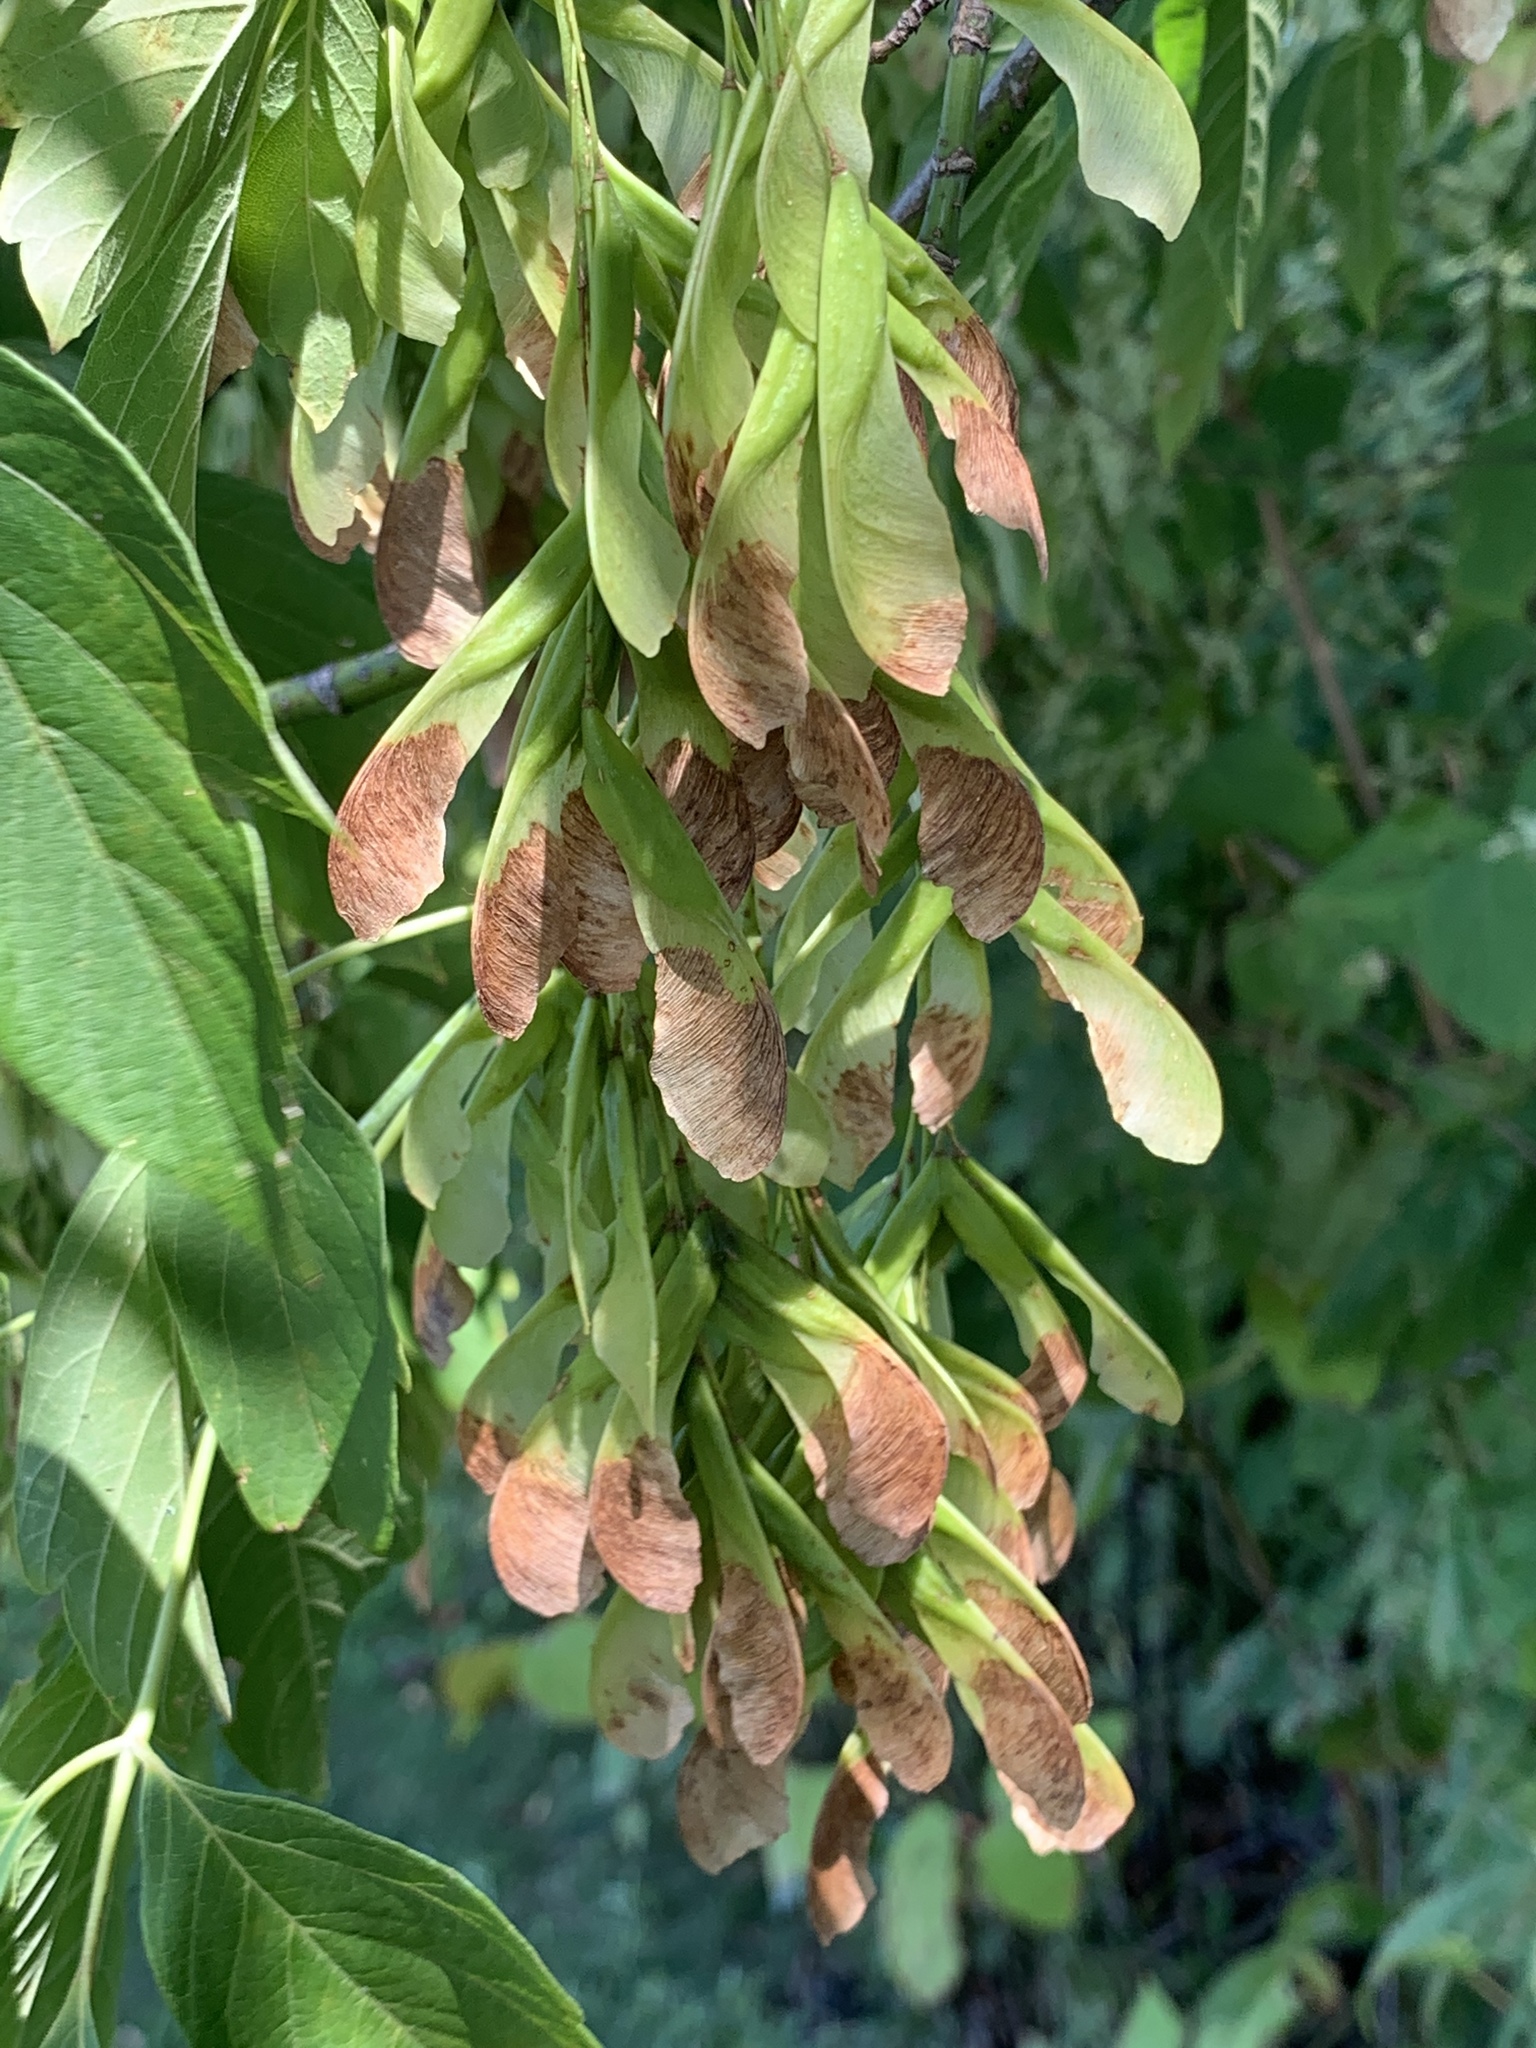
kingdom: Plantae
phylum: Tracheophyta
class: Magnoliopsida
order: Sapindales
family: Sapindaceae
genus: Acer
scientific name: Acer negundo
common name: Ashleaf maple
